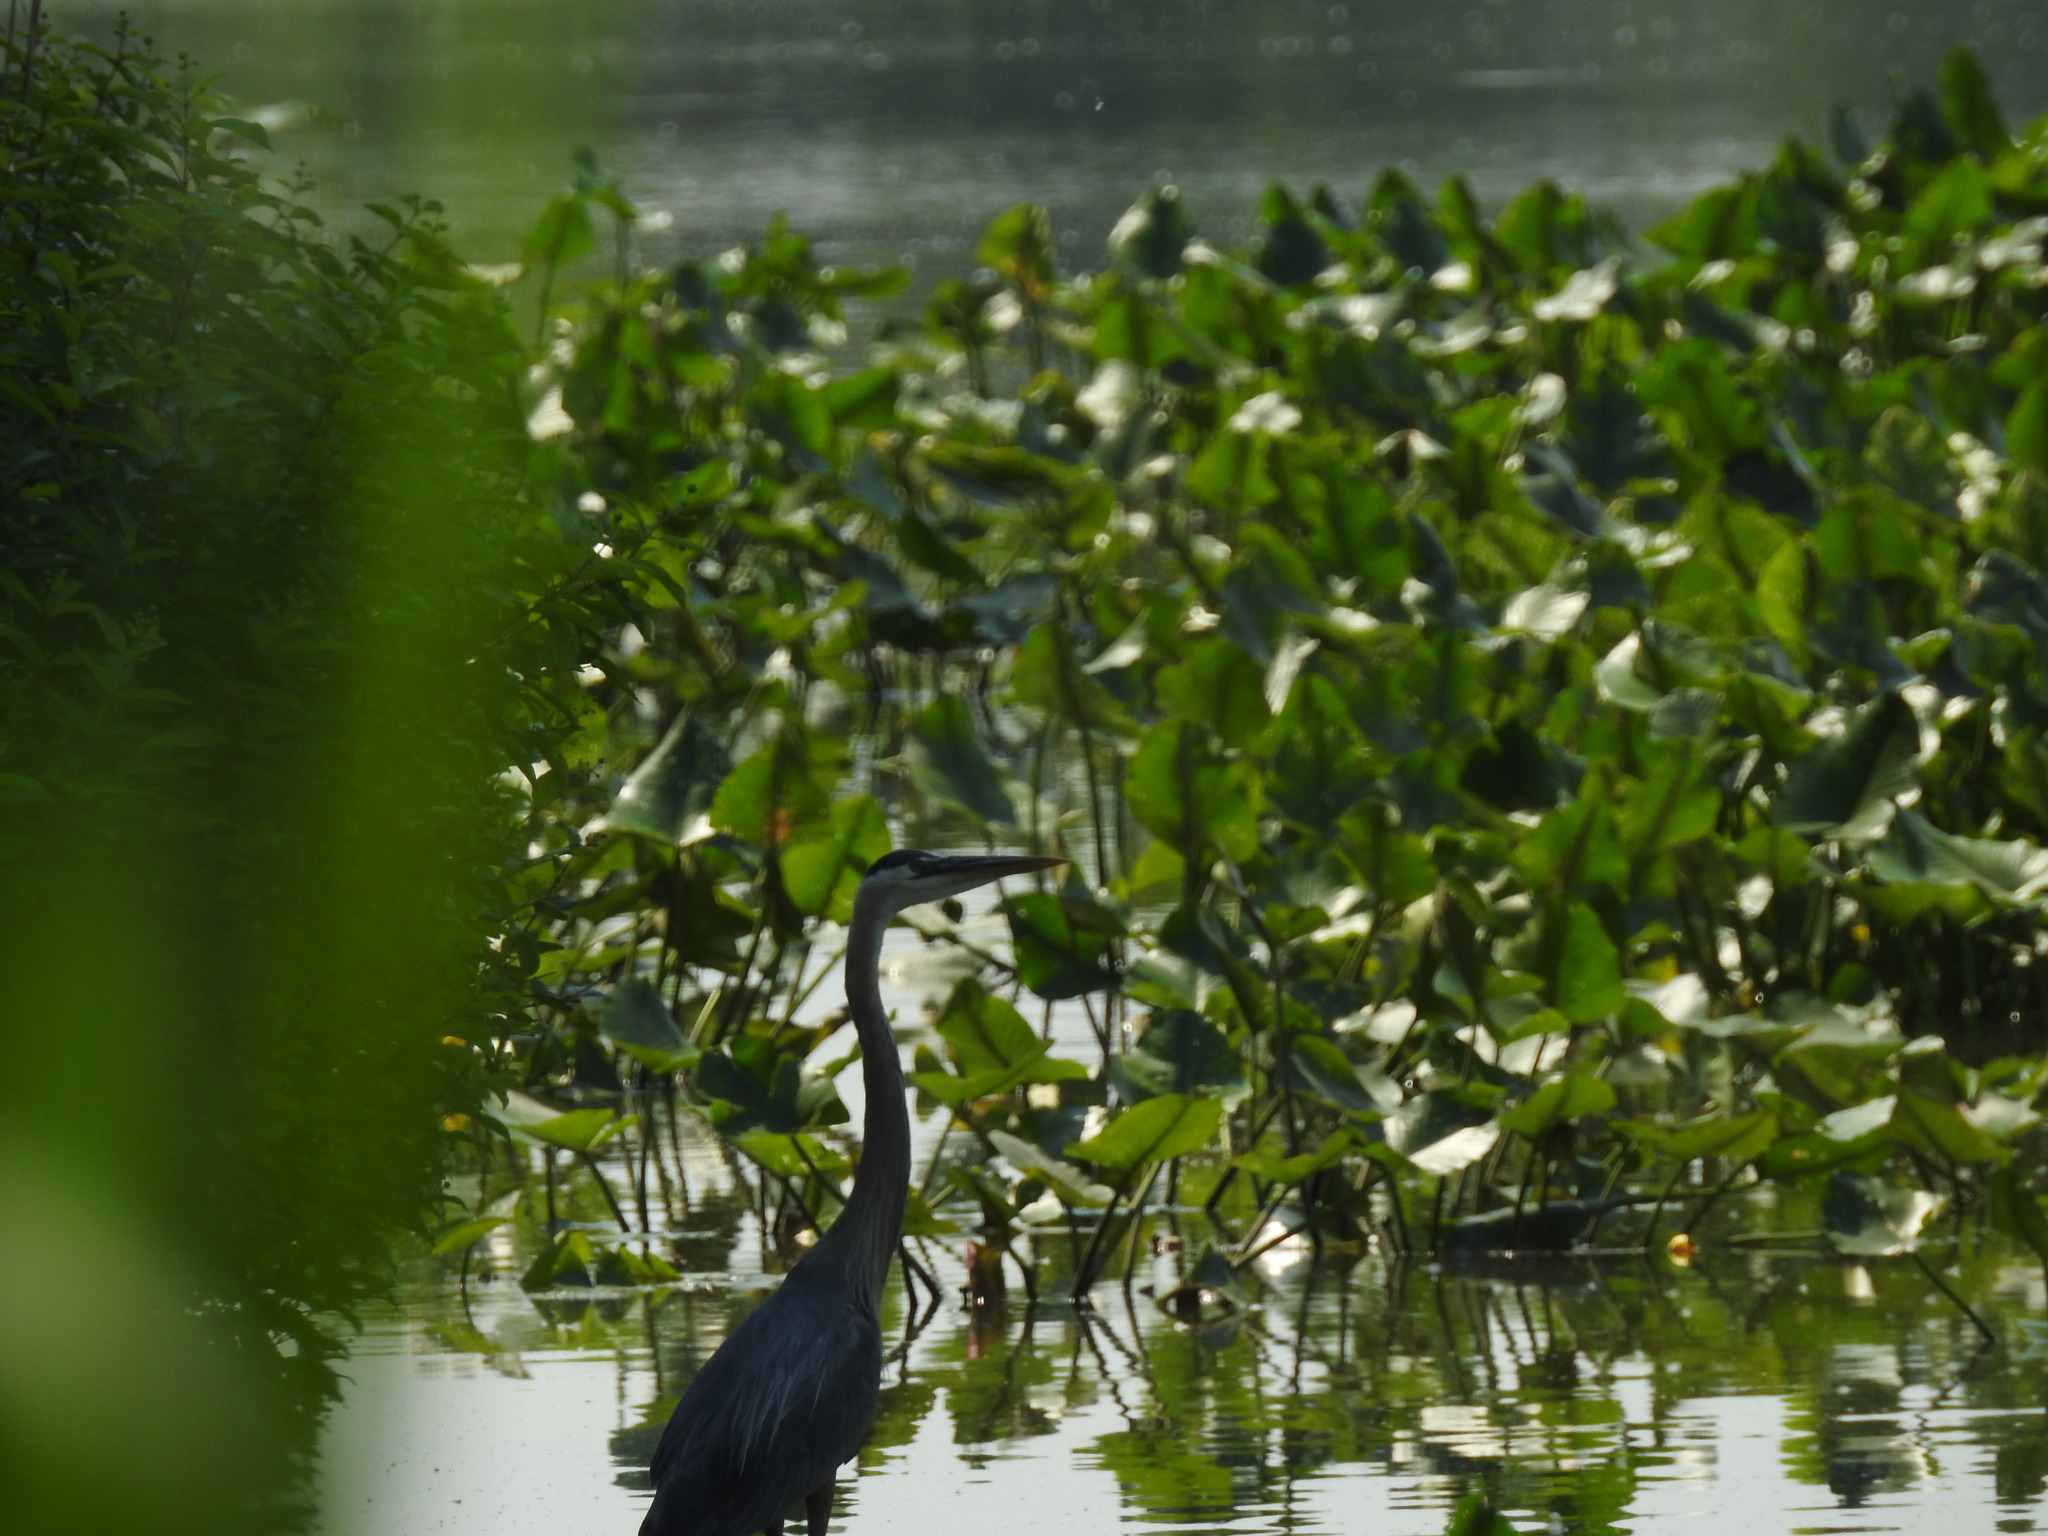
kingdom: Animalia
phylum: Chordata
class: Aves
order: Pelecaniformes
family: Ardeidae
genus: Ardea
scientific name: Ardea herodias
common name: Great blue heron
